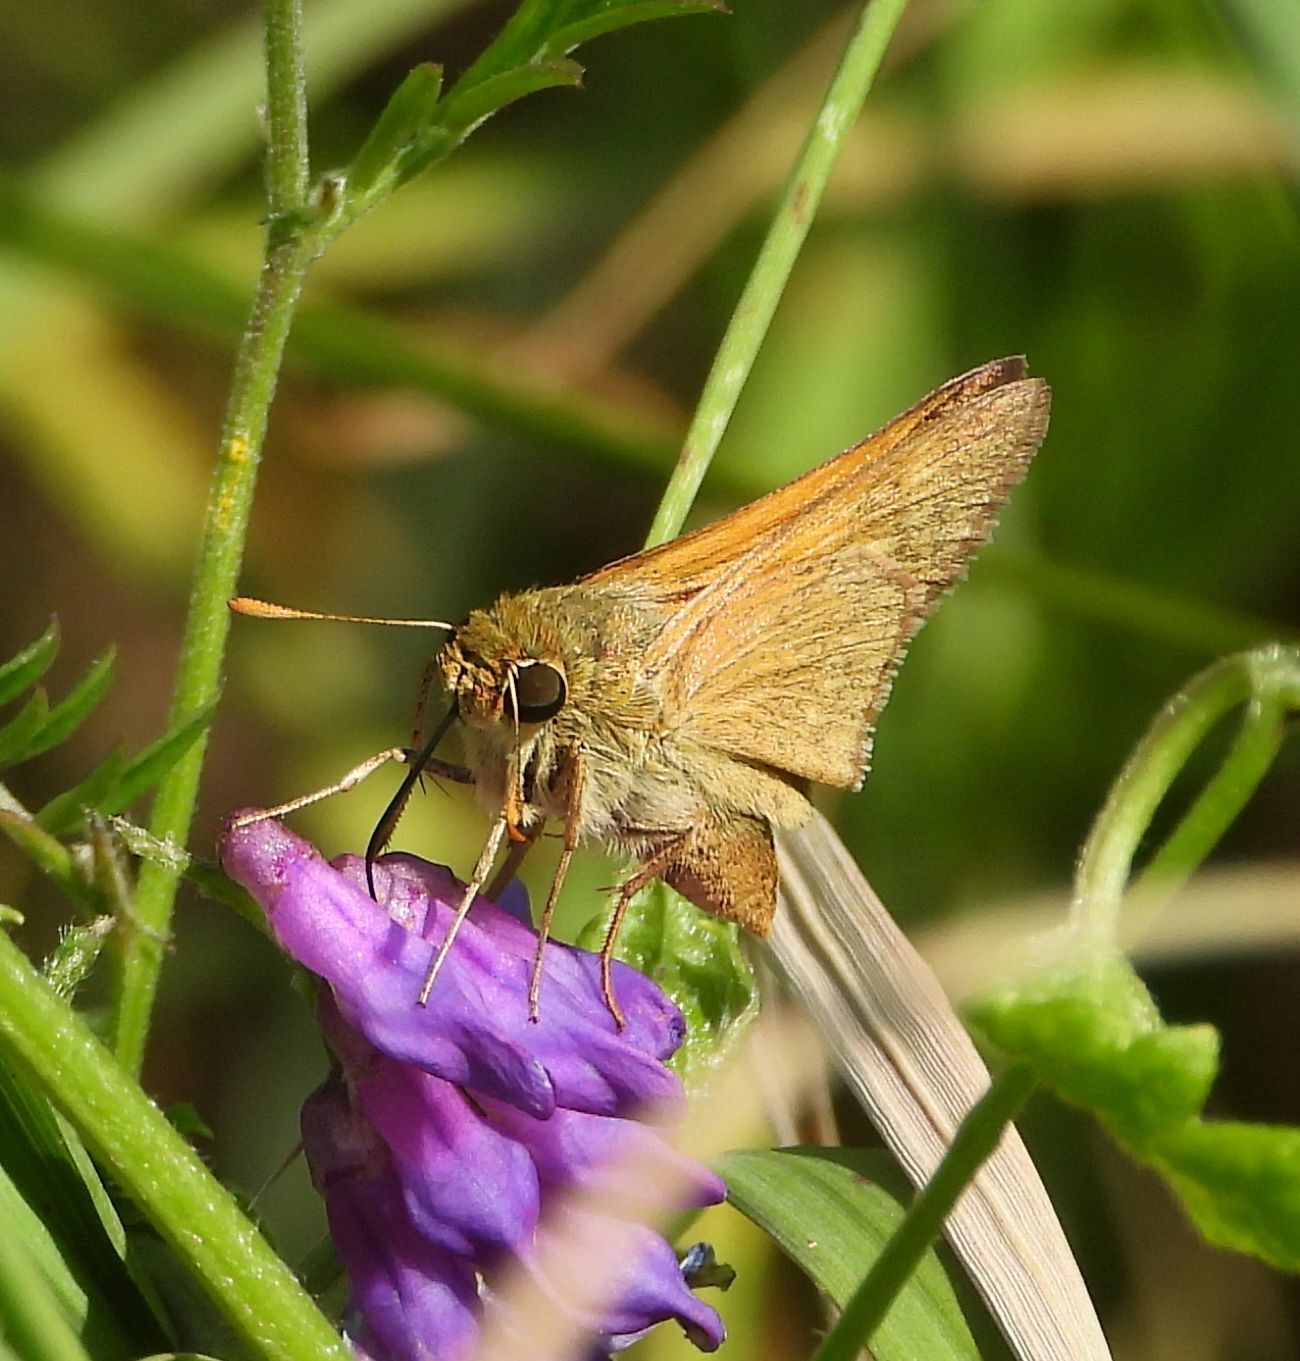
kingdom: Animalia
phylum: Arthropoda
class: Insecta
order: Lepidoptera
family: Hesperiidae
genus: Polites
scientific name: Polites origenes
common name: Crossline skipper
